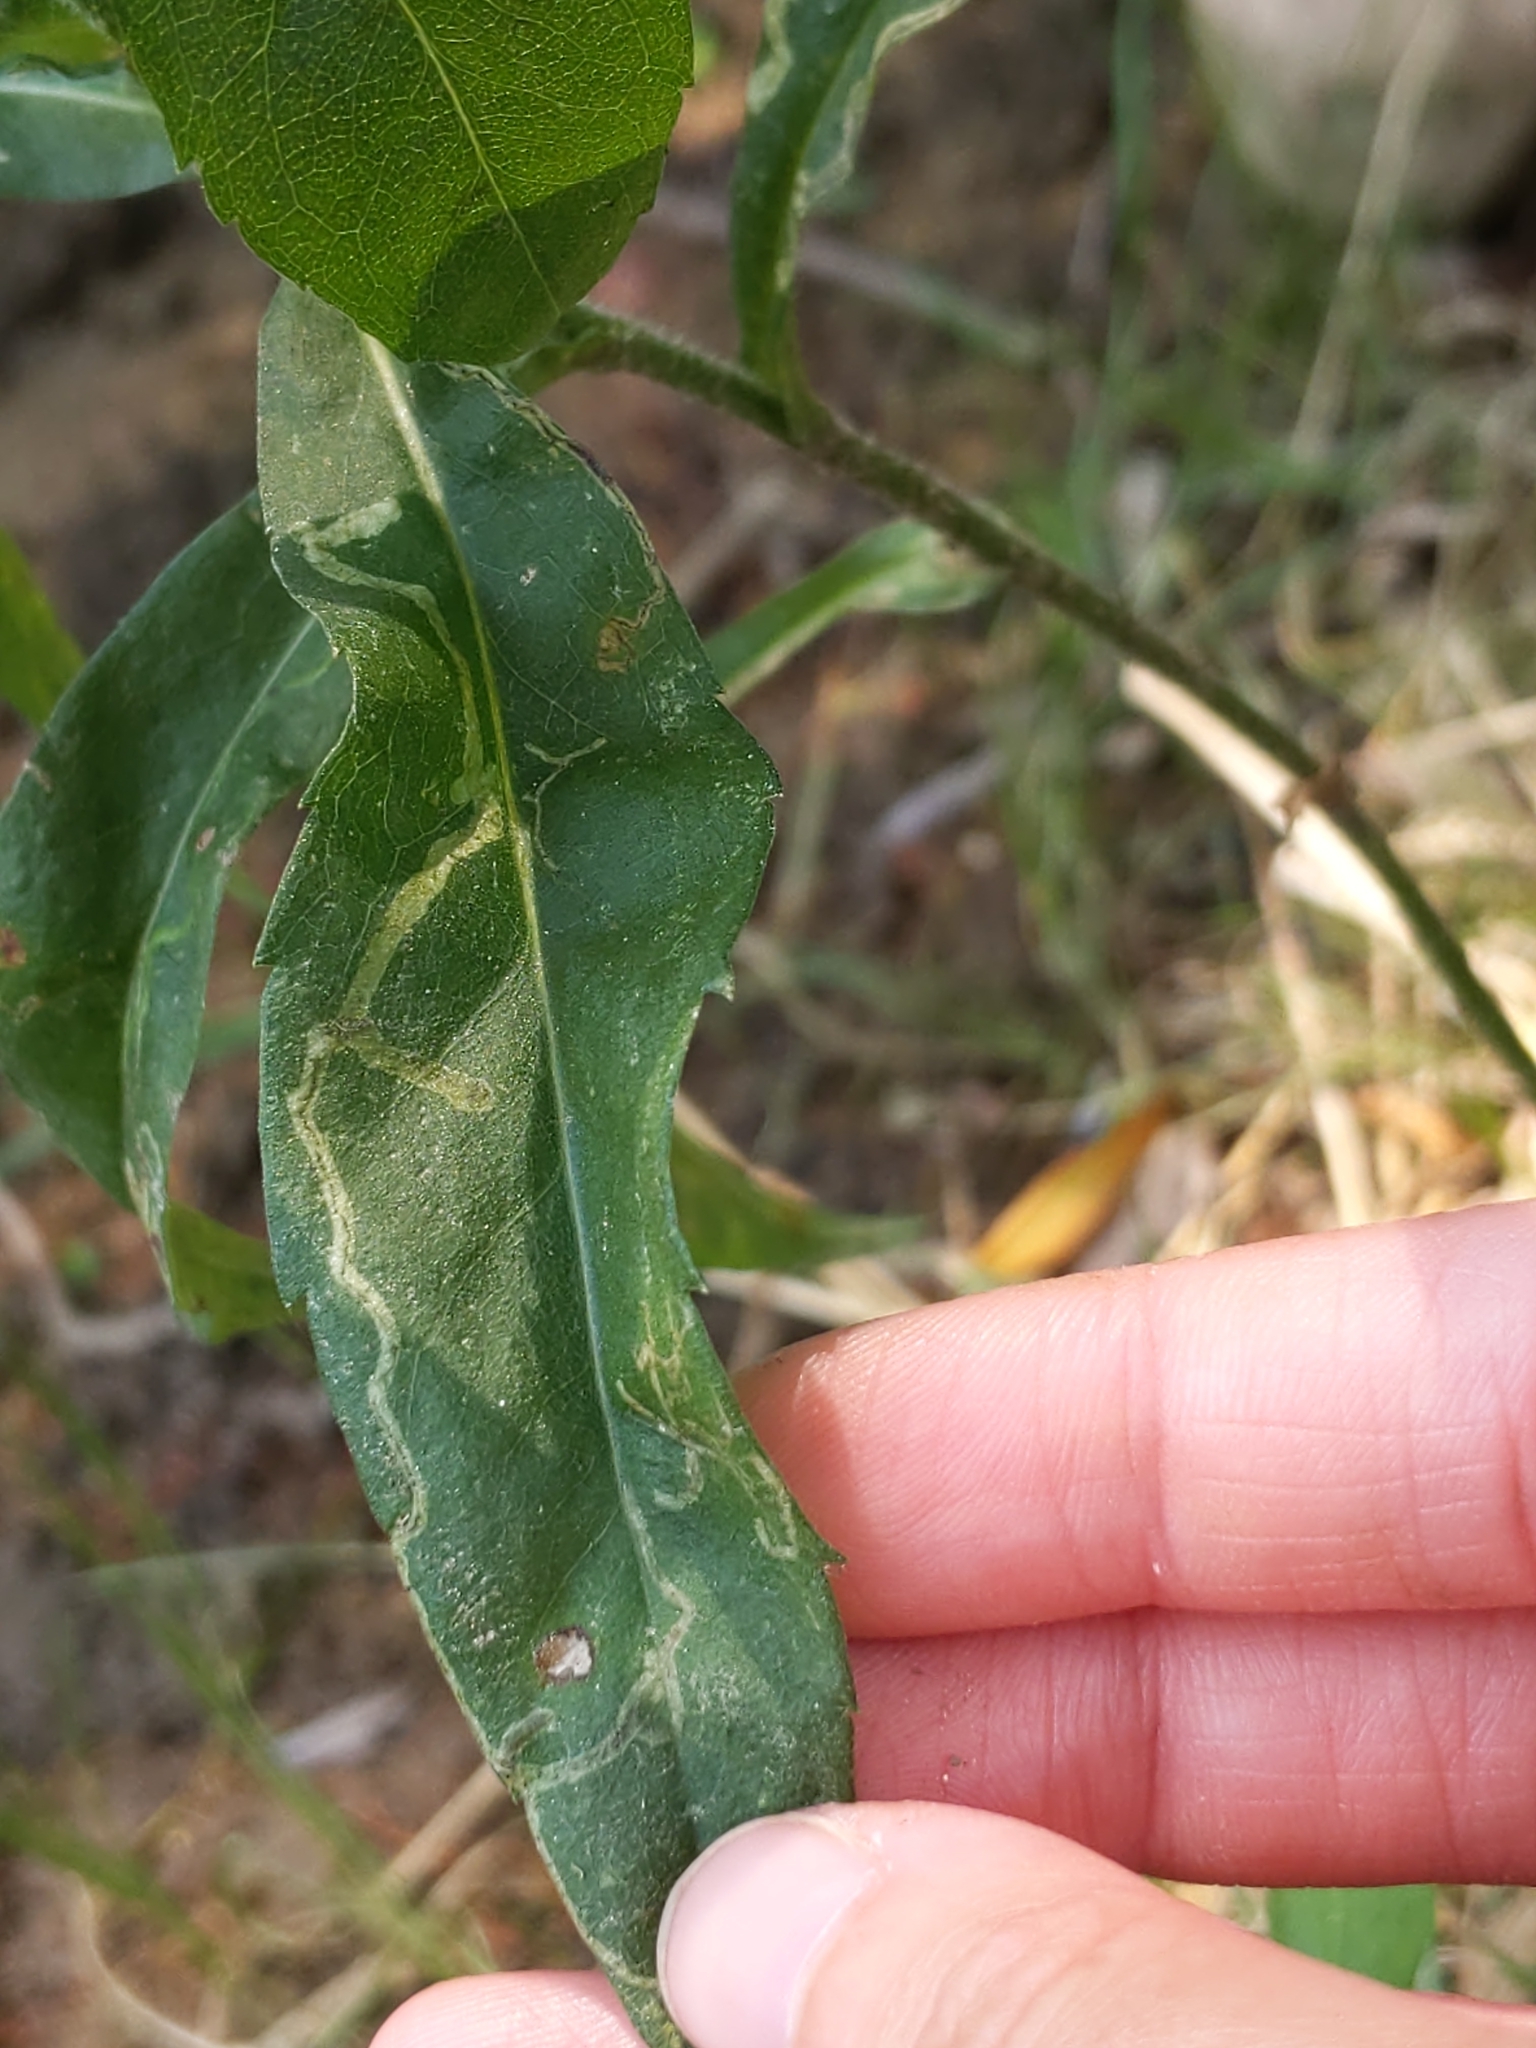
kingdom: Animalia
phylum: Arthropoda
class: Insecta
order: Diptera
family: Agromyzidae
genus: Liriomyza
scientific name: Liriomyza eupatorii
